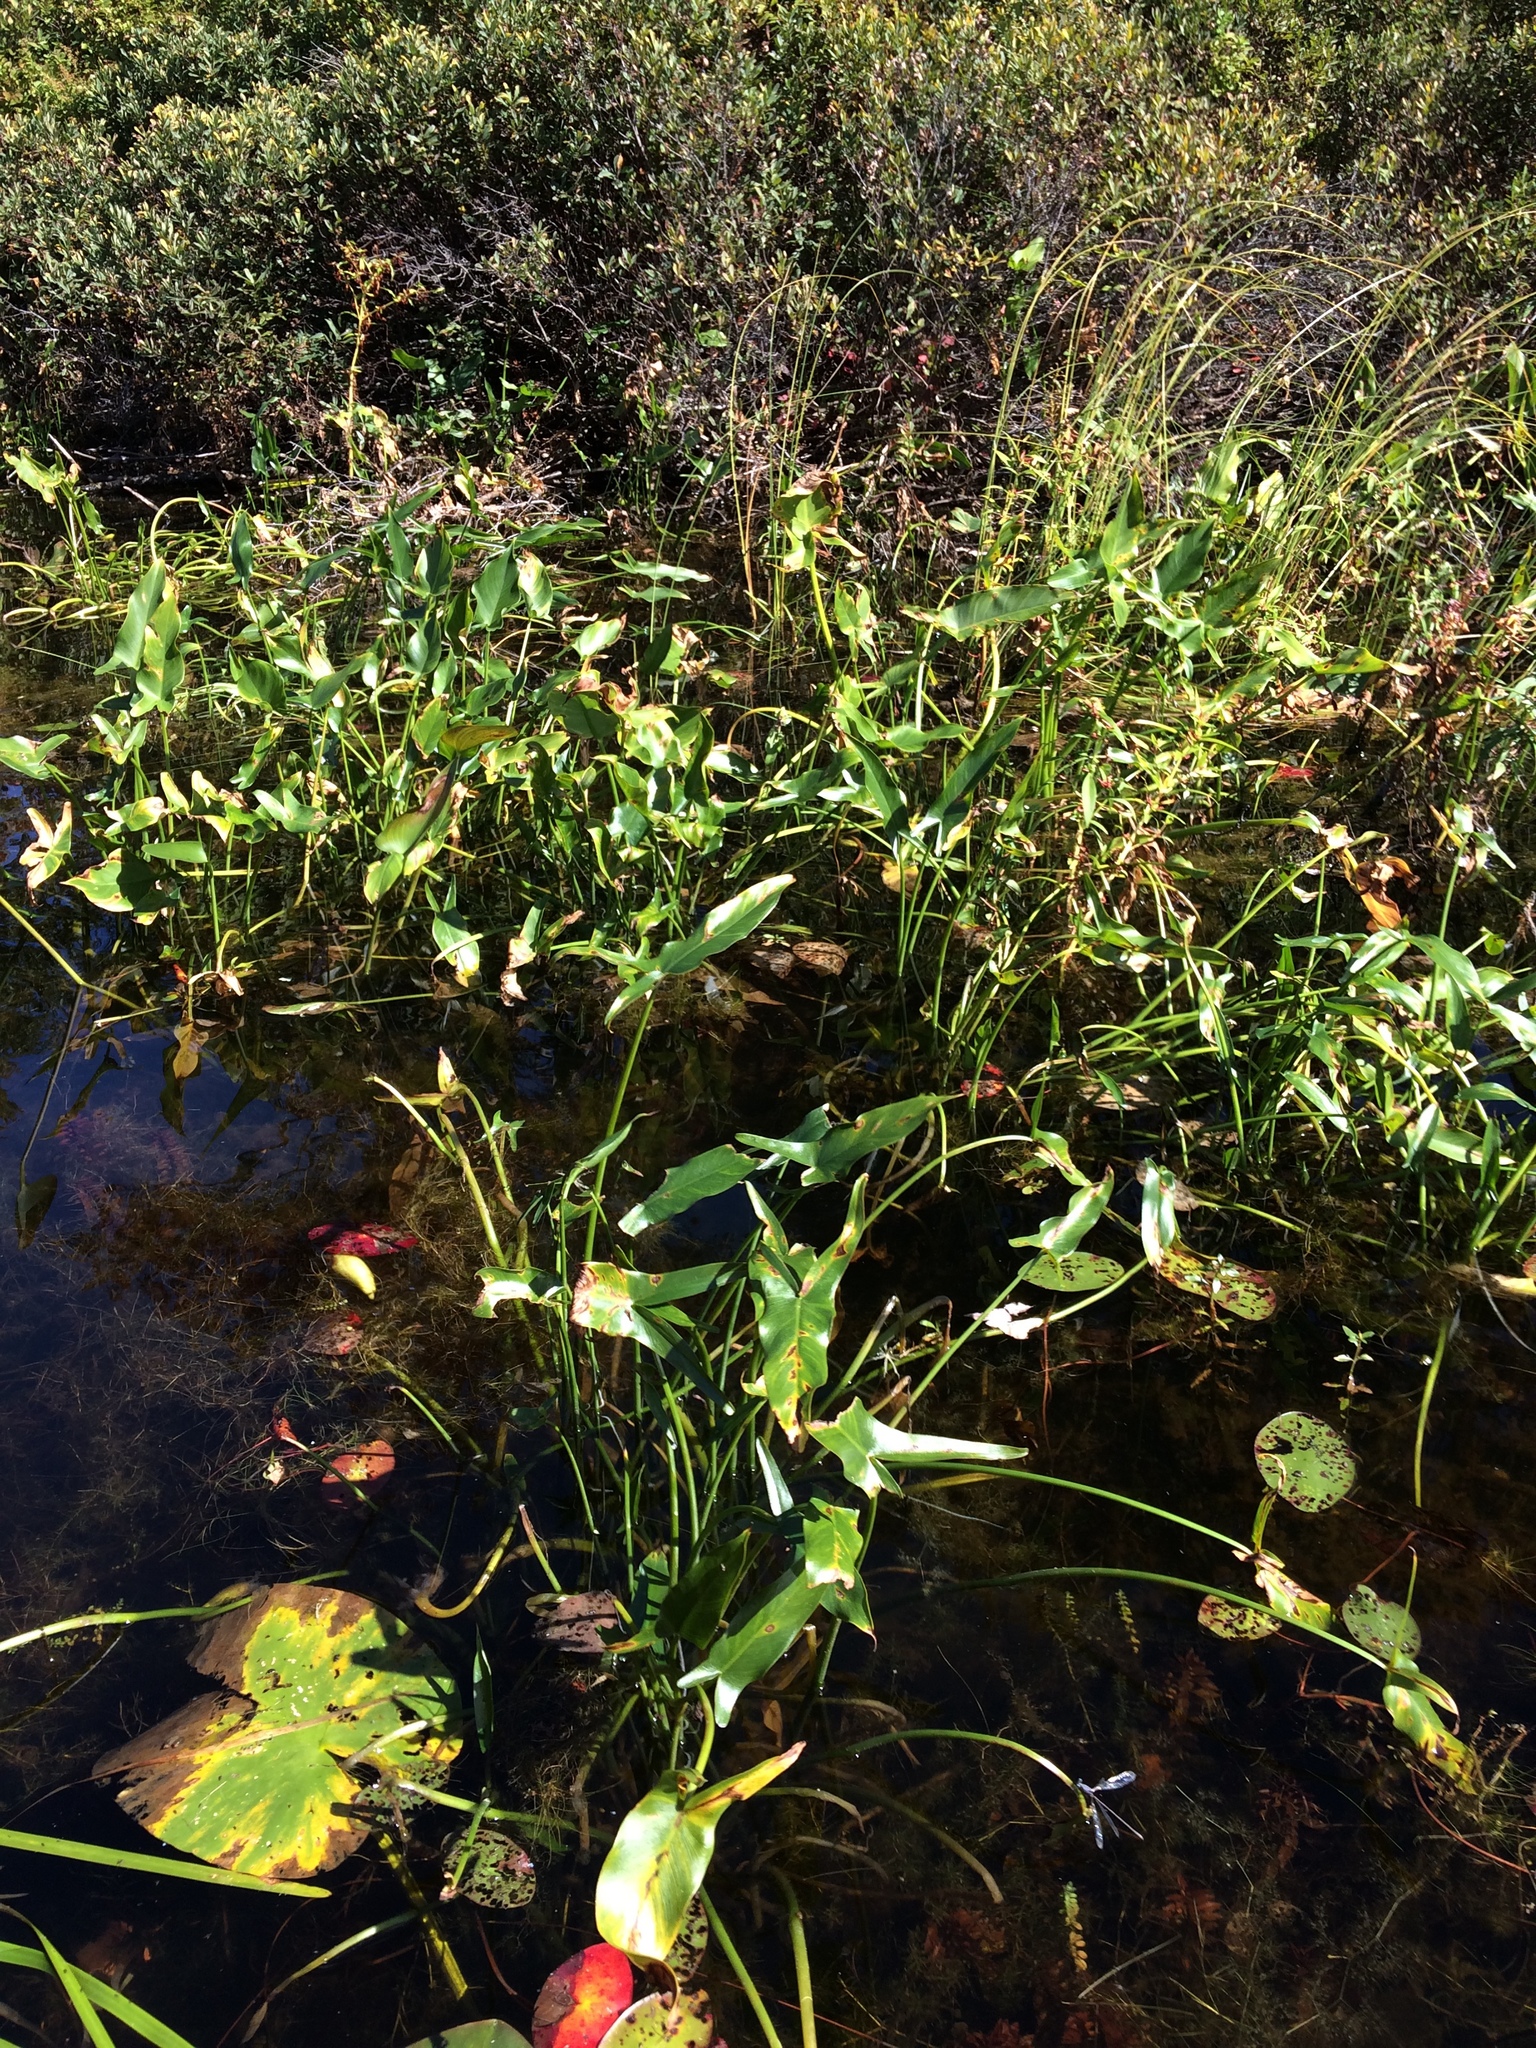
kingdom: Plantae
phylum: Tracheophyta
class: Liliopsida
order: Alismatales
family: Araceae
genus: Peltandra
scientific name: Peltandra virginica
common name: Arrow arum
